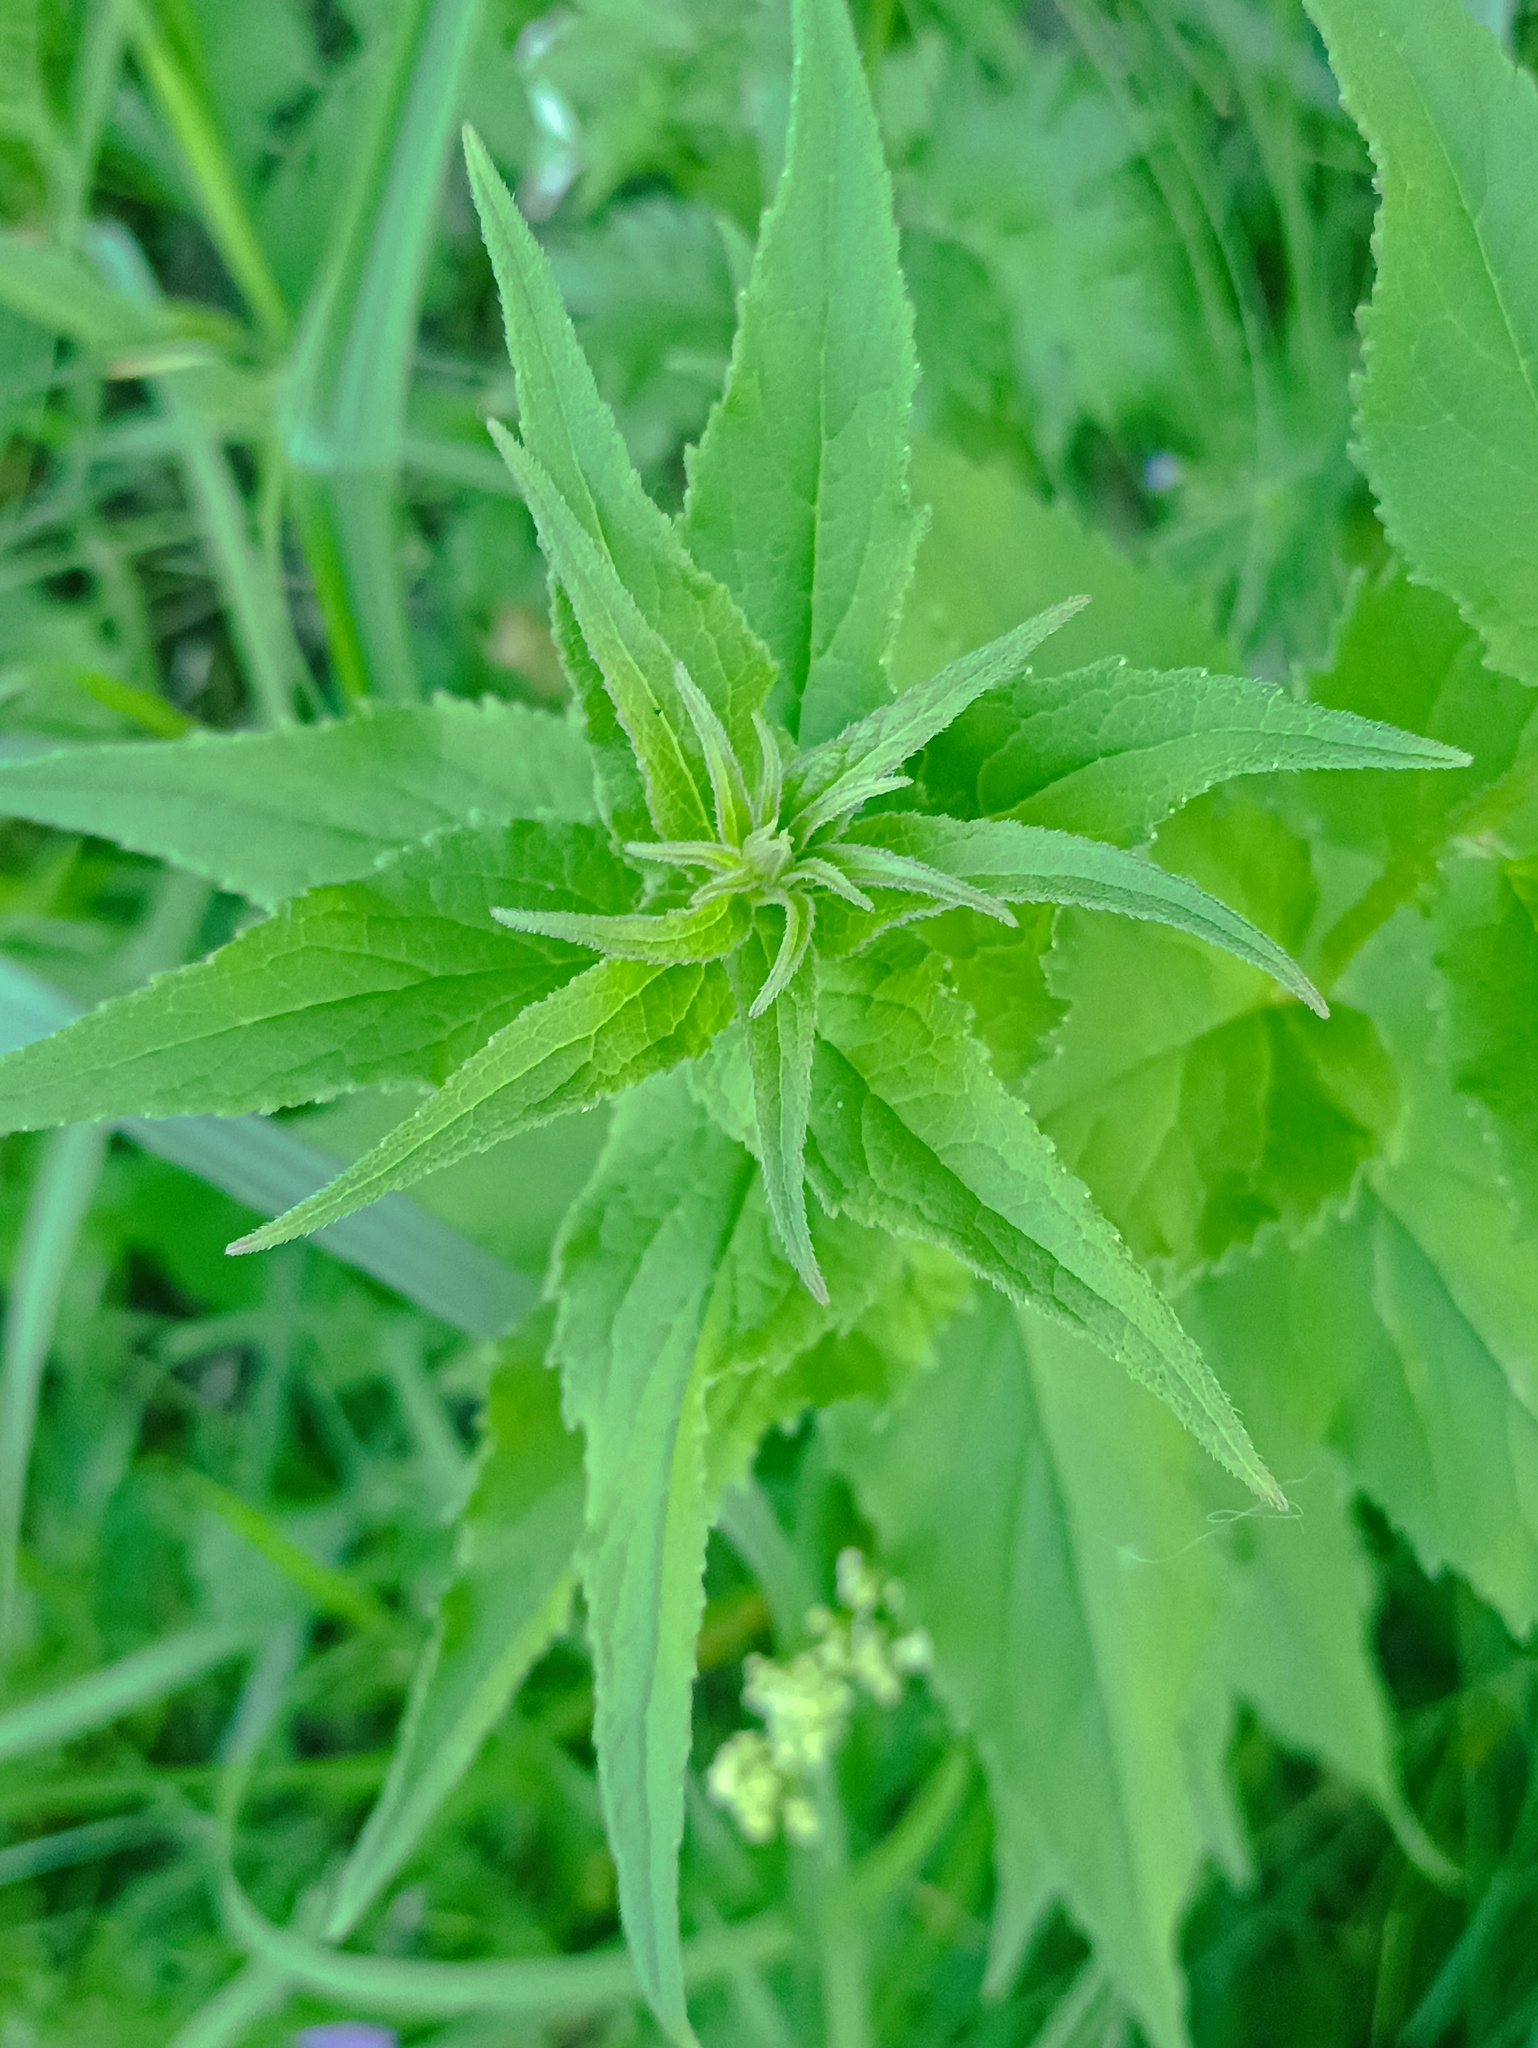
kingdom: Plantae
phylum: Tracheophyta
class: Magnoliopsida
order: Asterales
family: Campanulaceae
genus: Campanula
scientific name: Campanula trachelium
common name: Nettle-leaved bellflower
